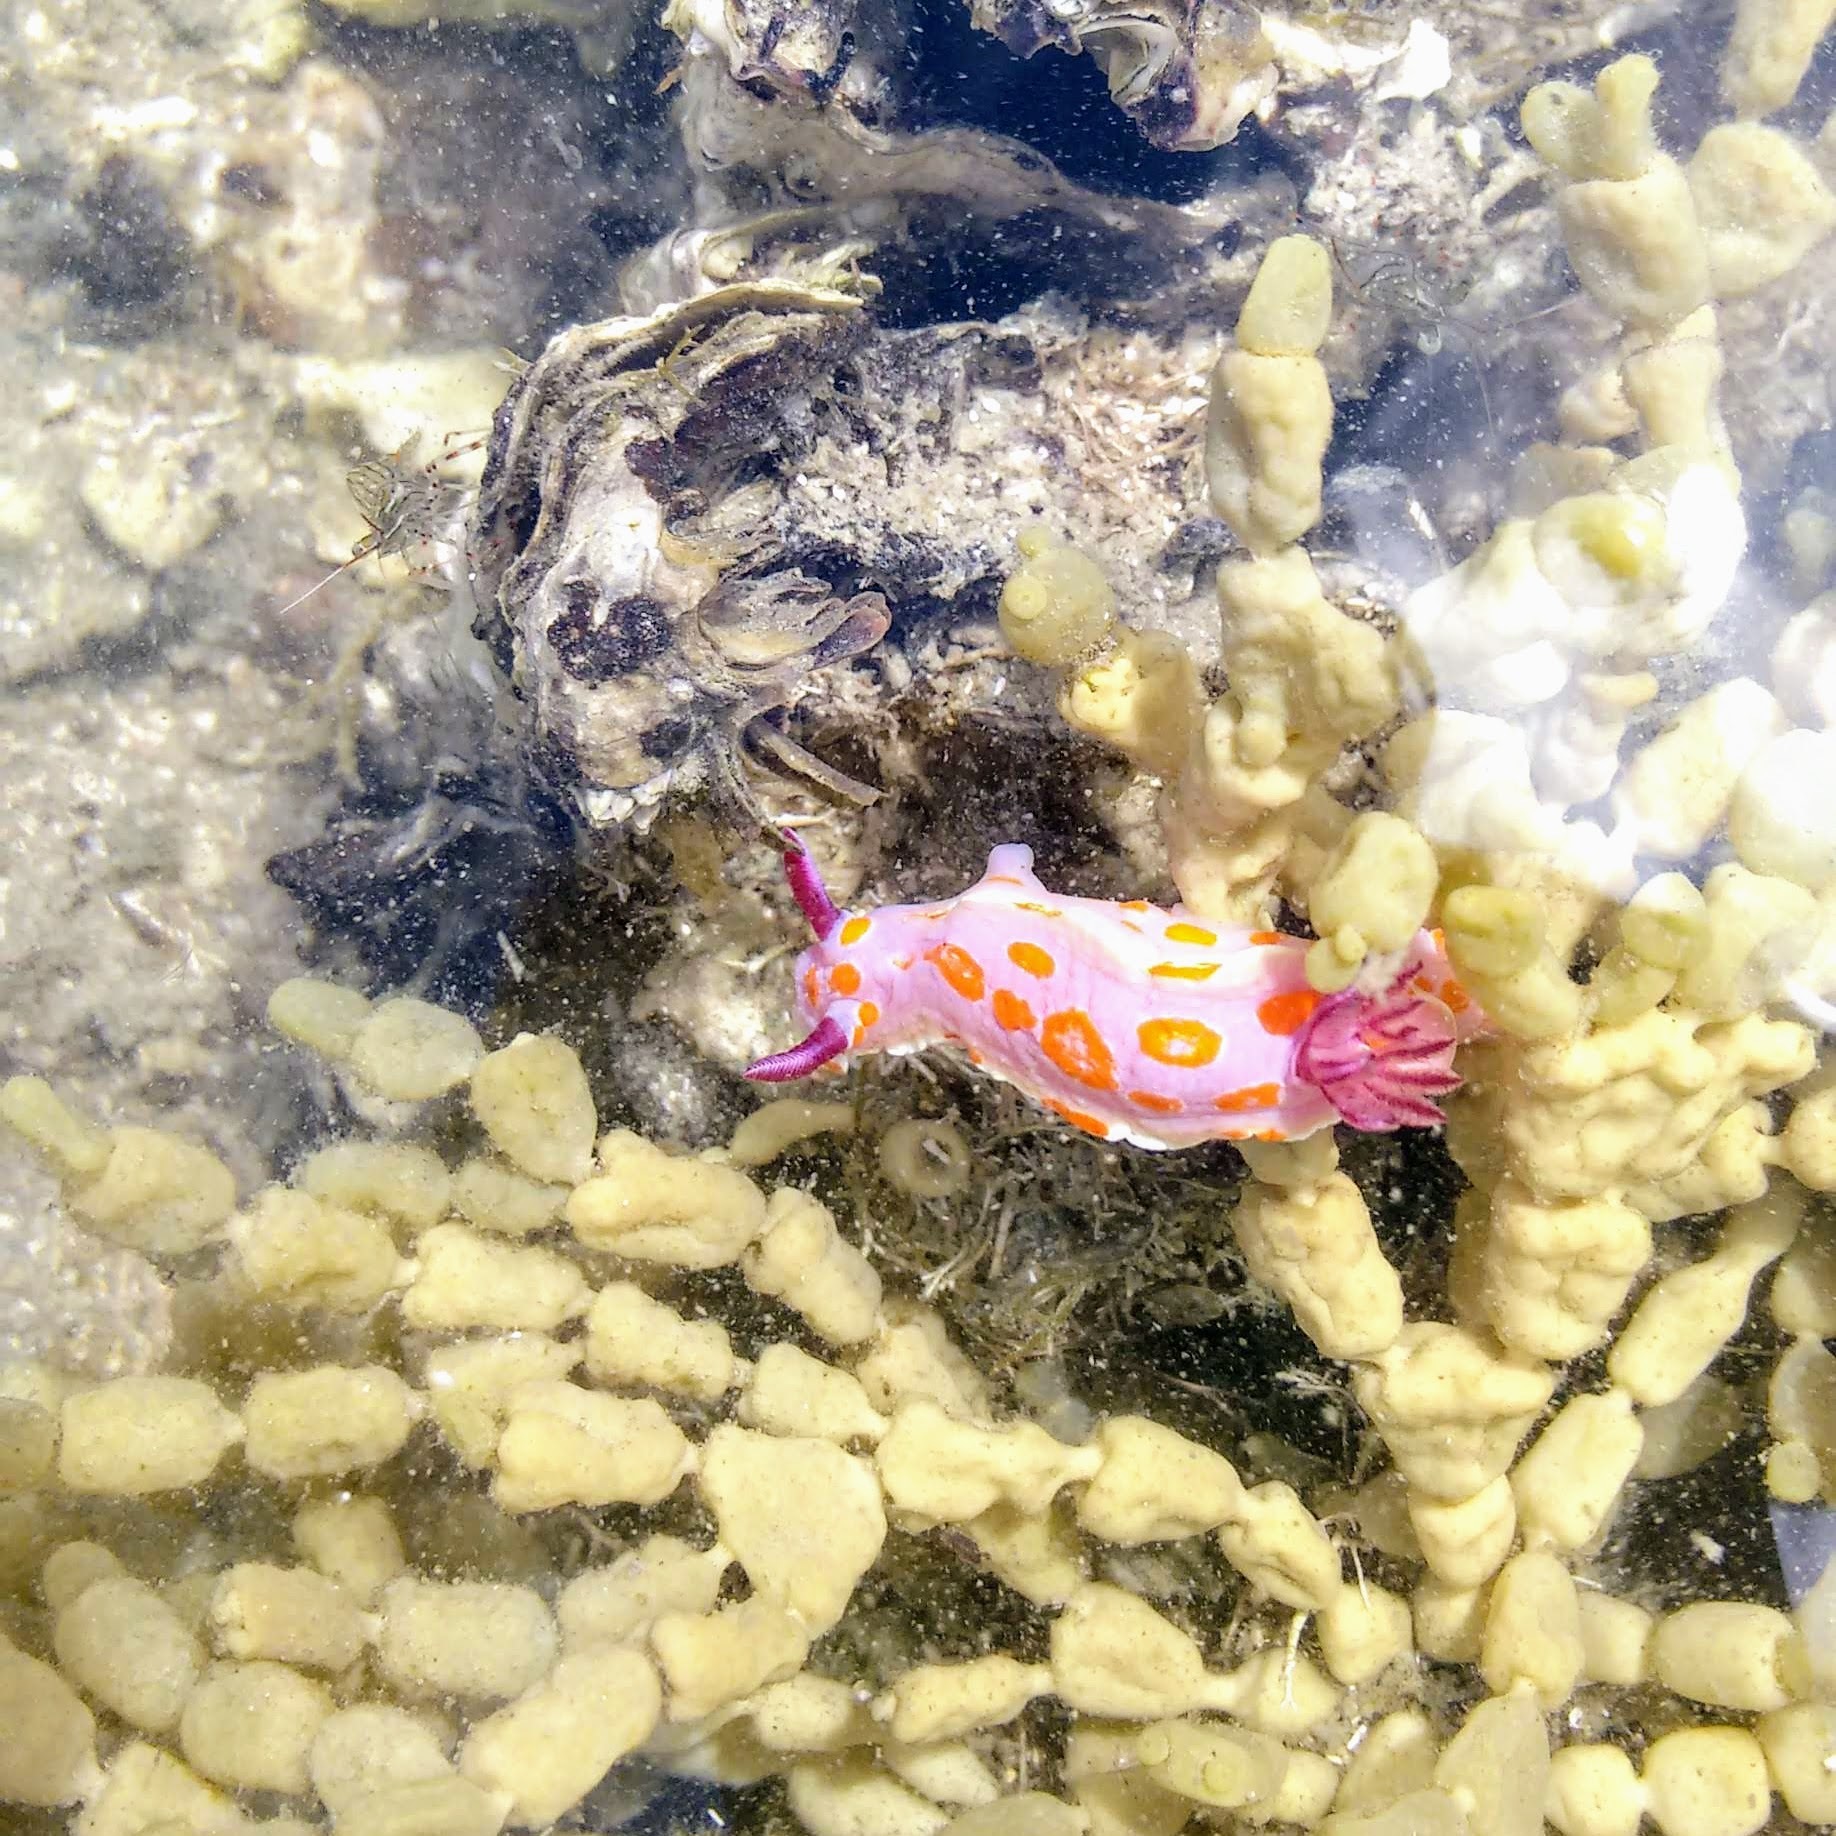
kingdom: Animalia
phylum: Mollusca
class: Gastropoda
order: Nudibranchia
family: Chromodorididae
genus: Ceratosoma
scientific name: Ceratosoma amoenum
